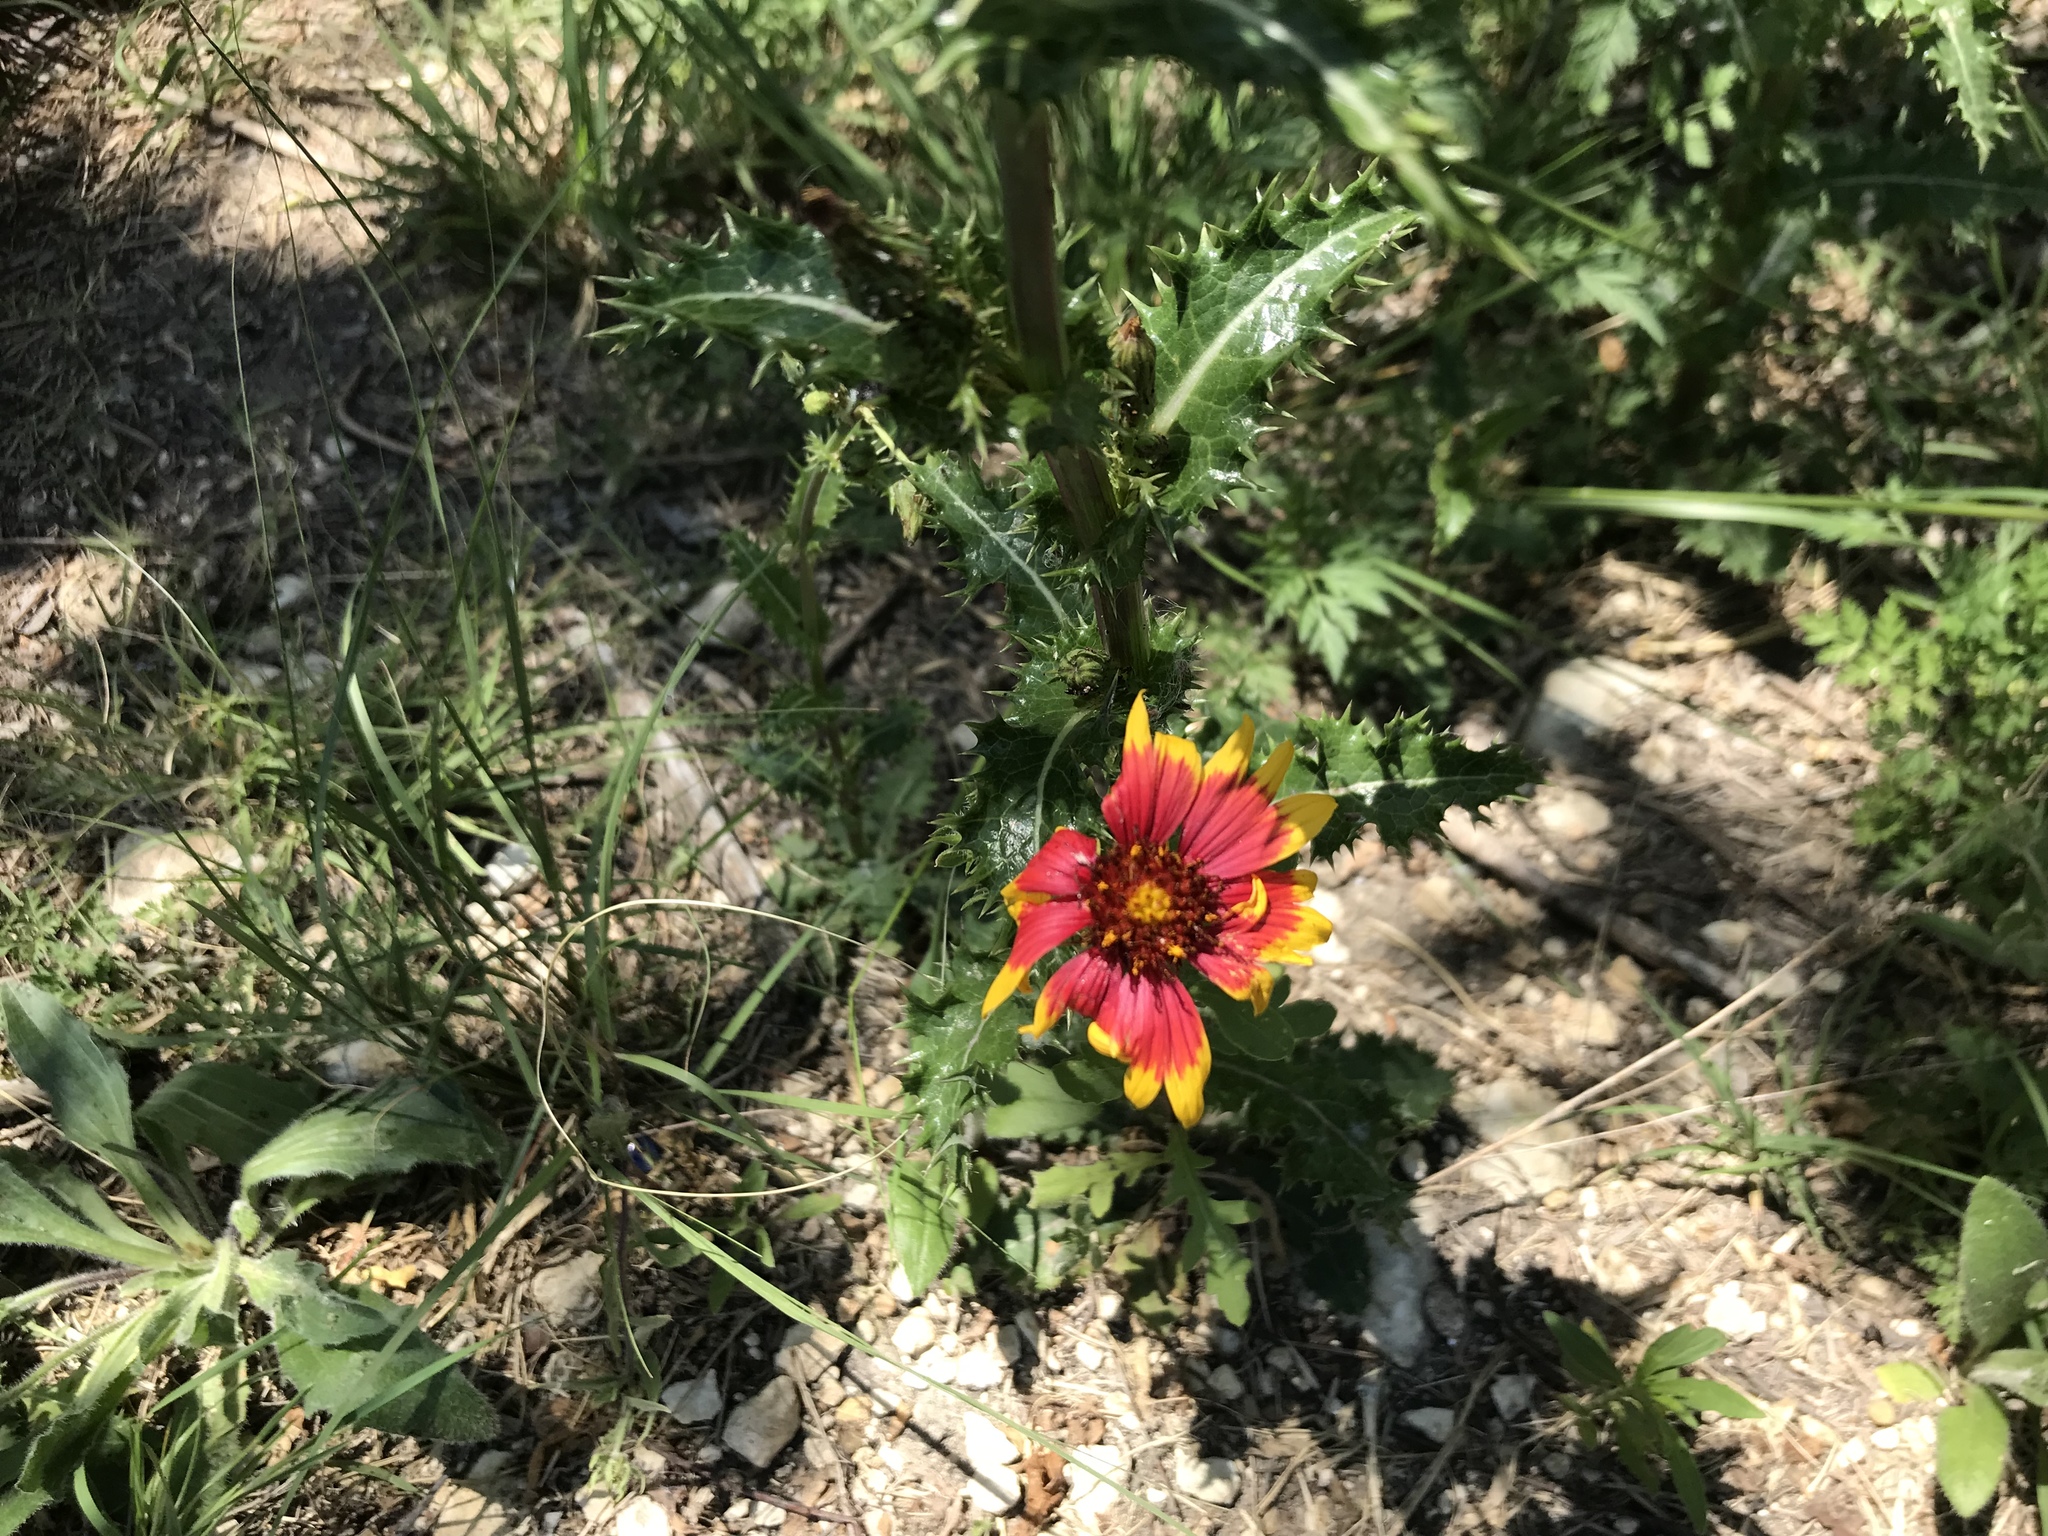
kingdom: Plantae
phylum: Tracheophyta
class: Magnoliopsida
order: Asterales
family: Asteraceae
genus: Gaillardia
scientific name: Gaillardia pulchella
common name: Firewheel
